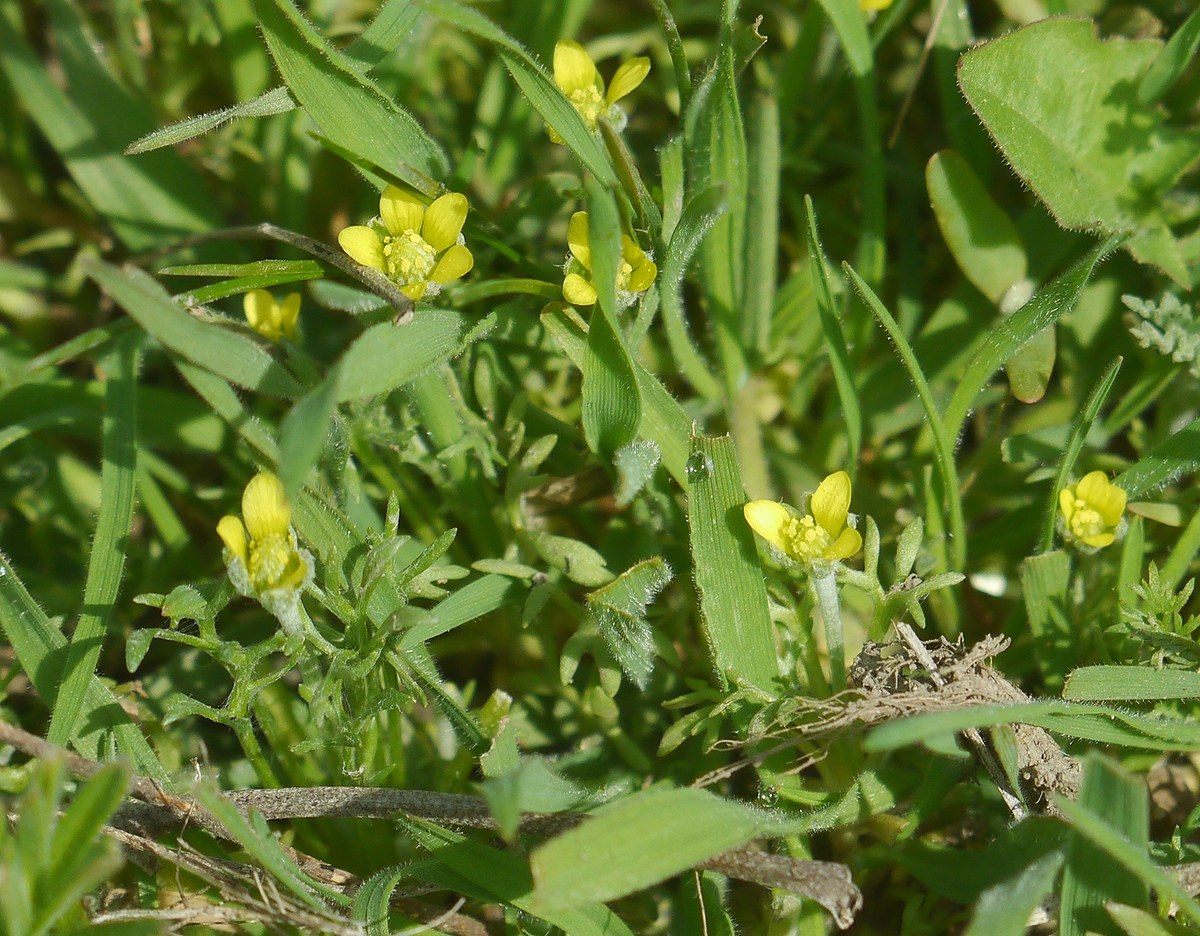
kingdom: Plantae
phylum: Tracheophyta
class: Magnoliopsida
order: Ranunculales
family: Ranunculaceae
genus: Ceratocephala
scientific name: Ceratocephala orthoceras
